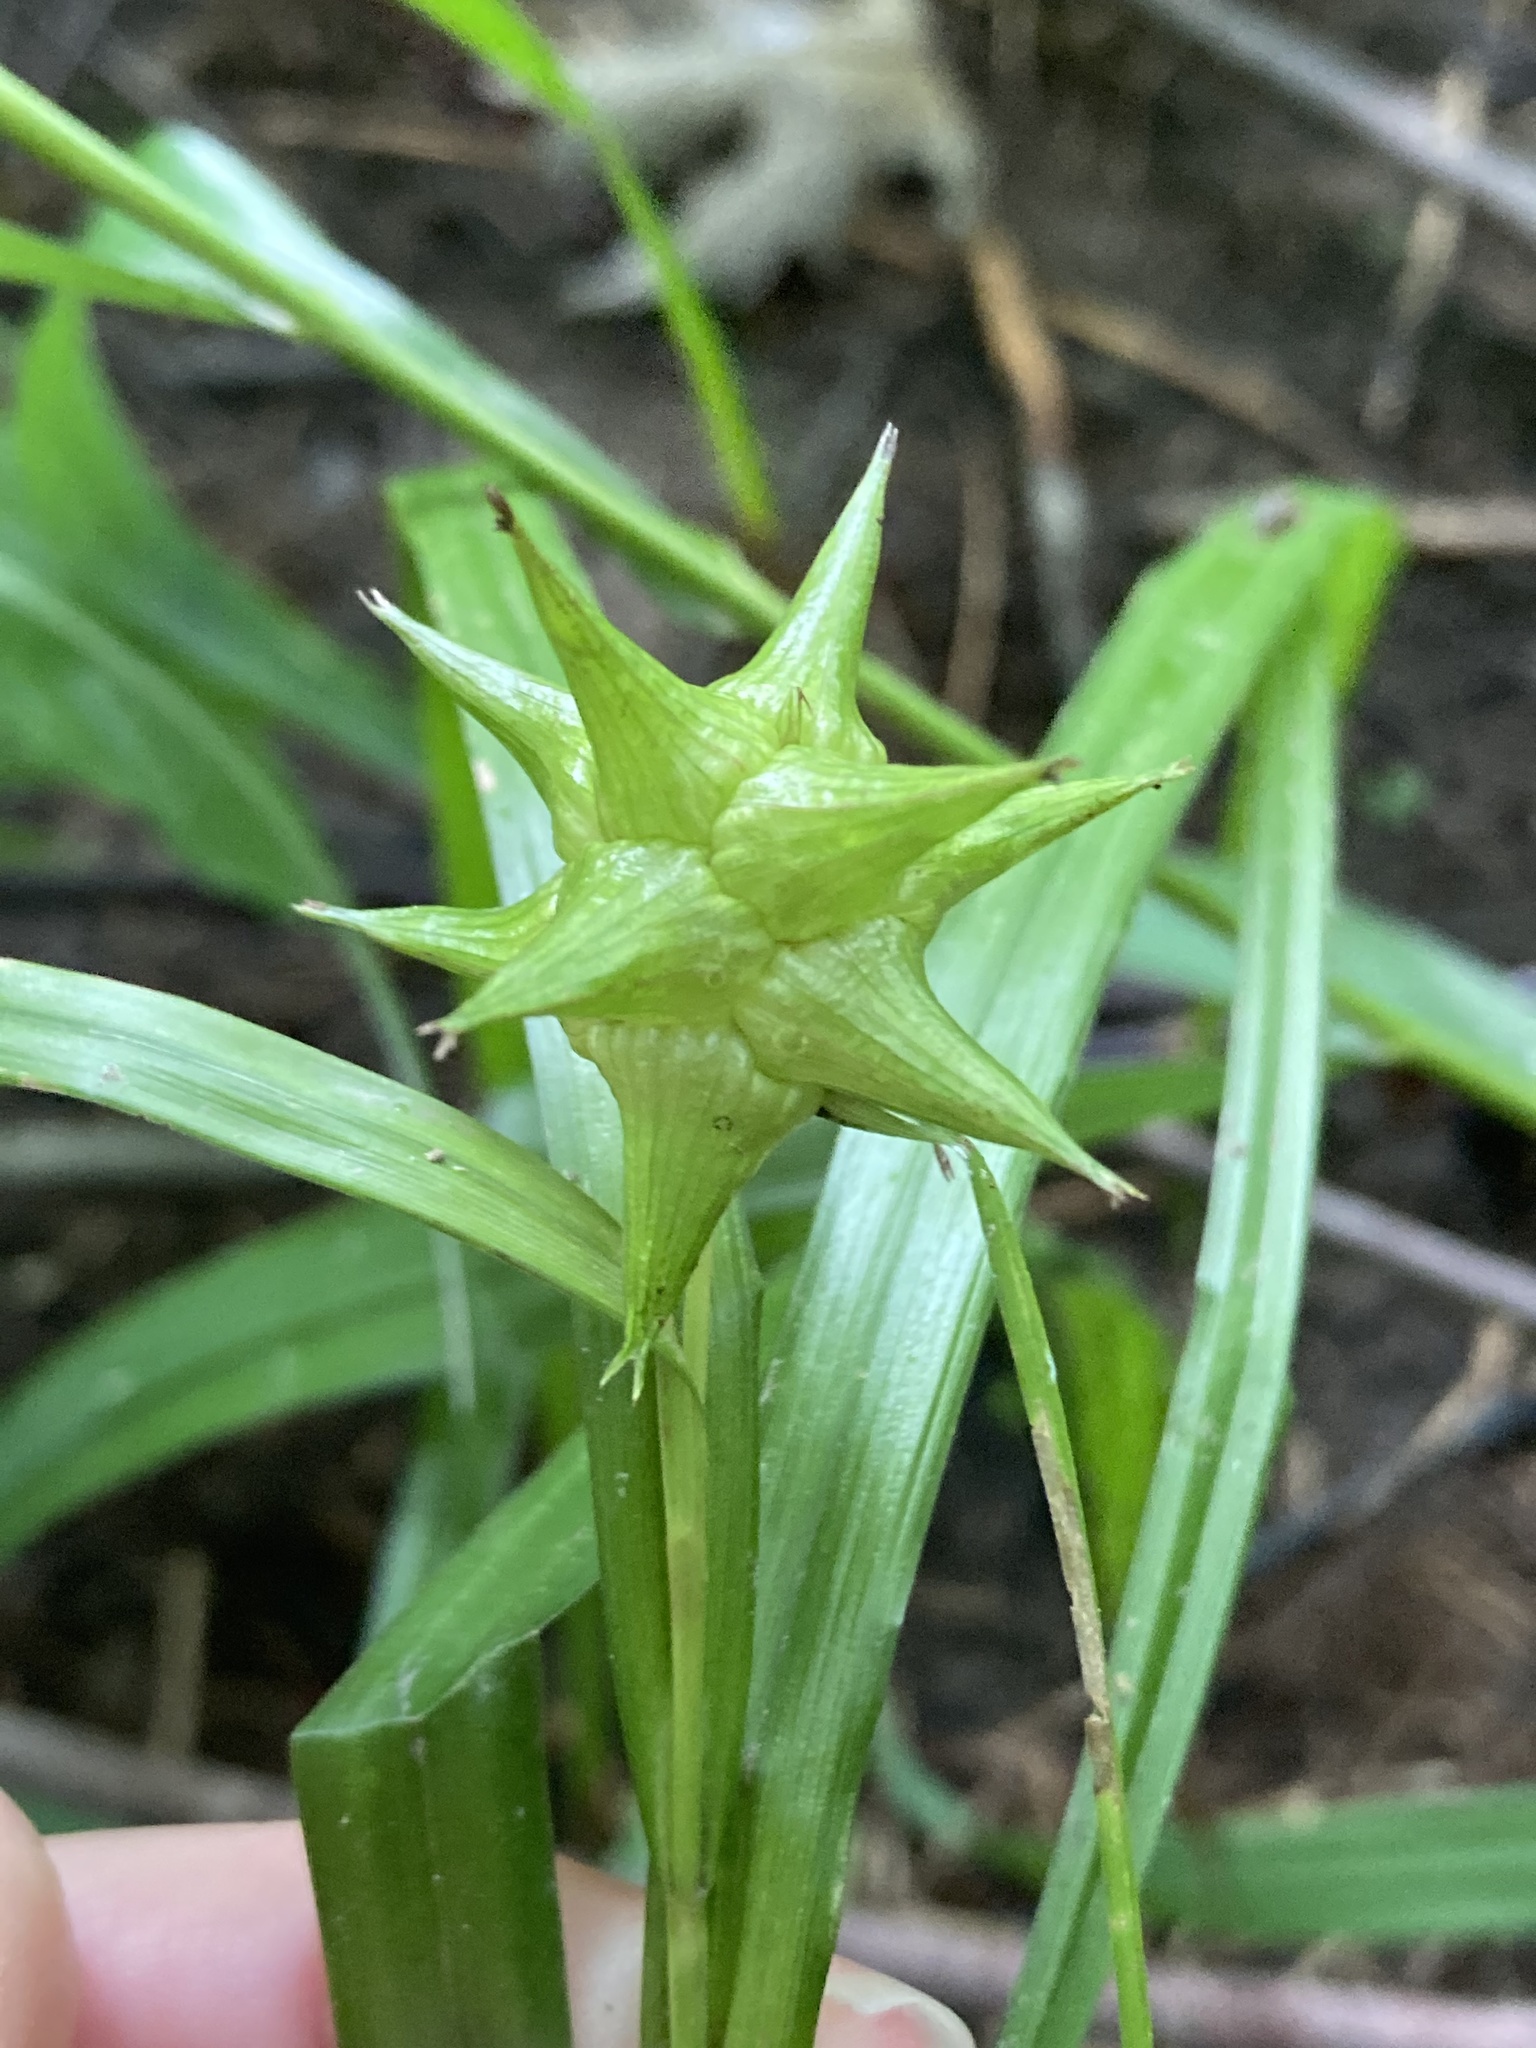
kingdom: Plantae
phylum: Tracheophyta
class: Liliopsida
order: Poales
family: Cyperaceae
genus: Carex
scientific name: Carex grayi
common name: Asa gray's sedge
